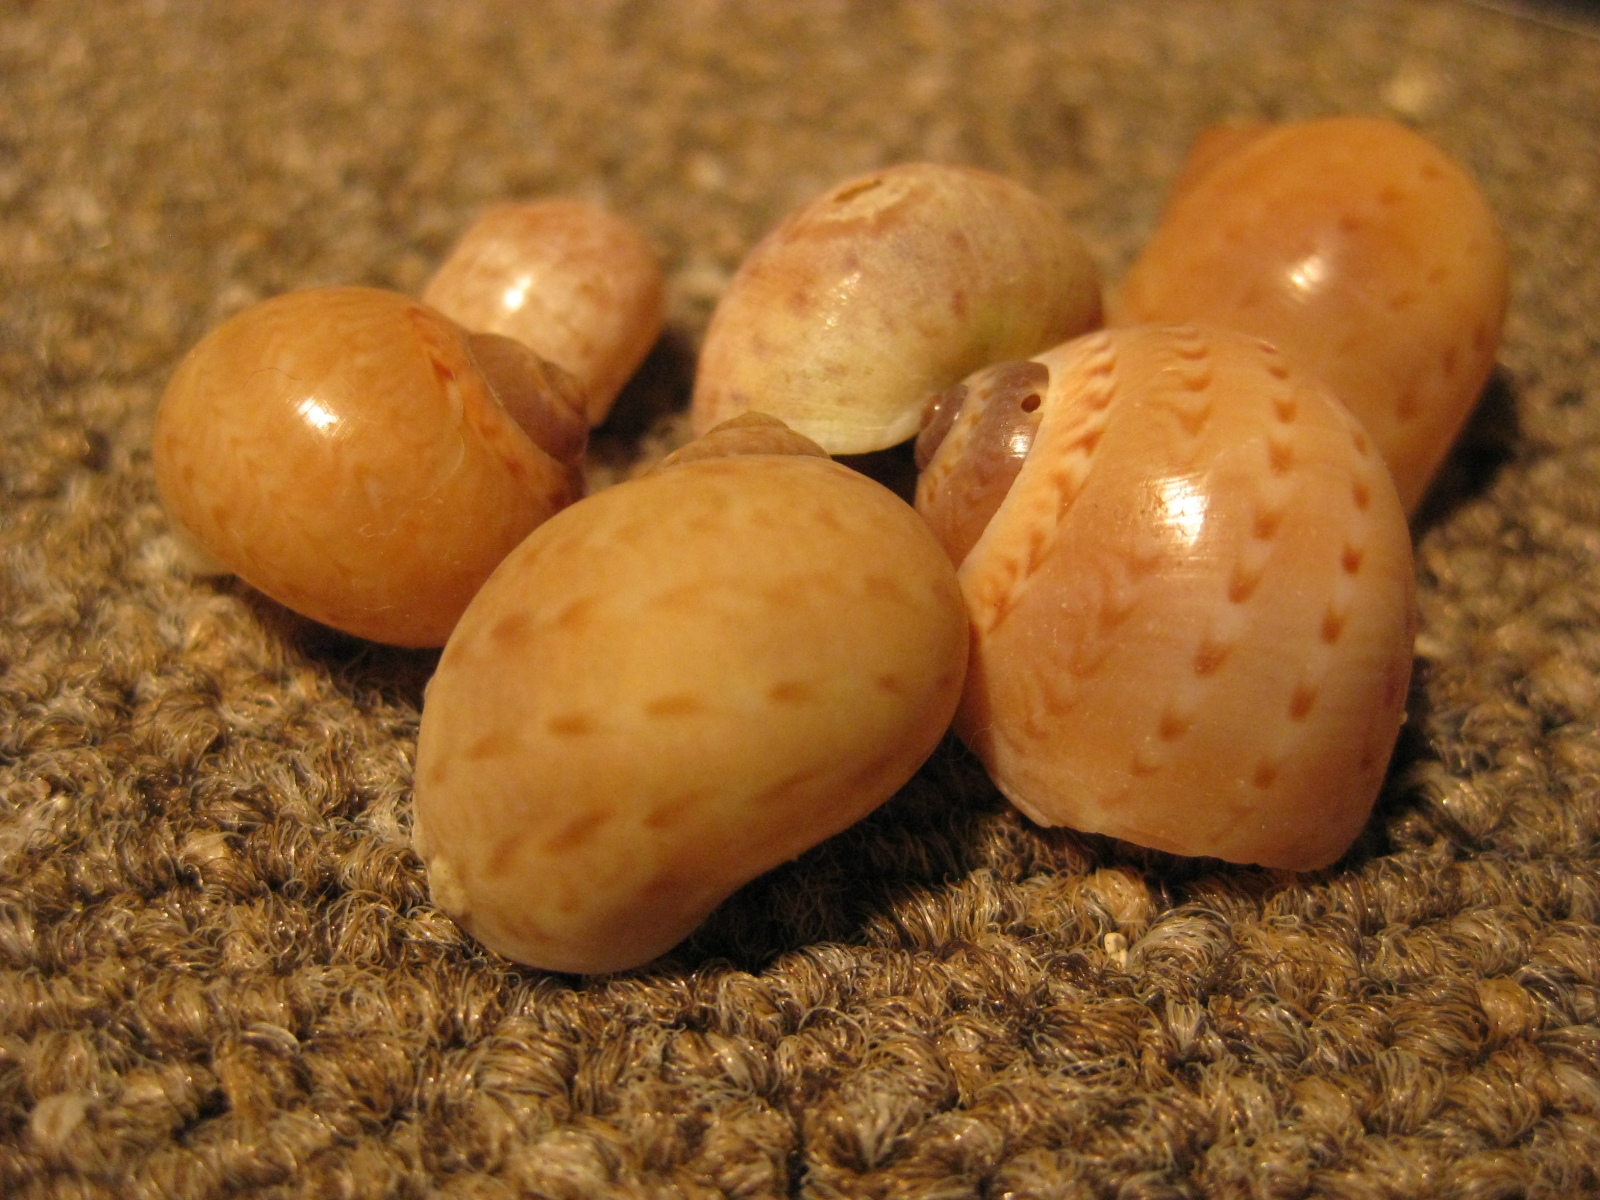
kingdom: Animalia
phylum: Mollusca
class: Gastropoda
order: Littorinimorpha
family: Naticidae
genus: Tanea
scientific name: Tanea zelandica
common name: New zealand moonsnail
